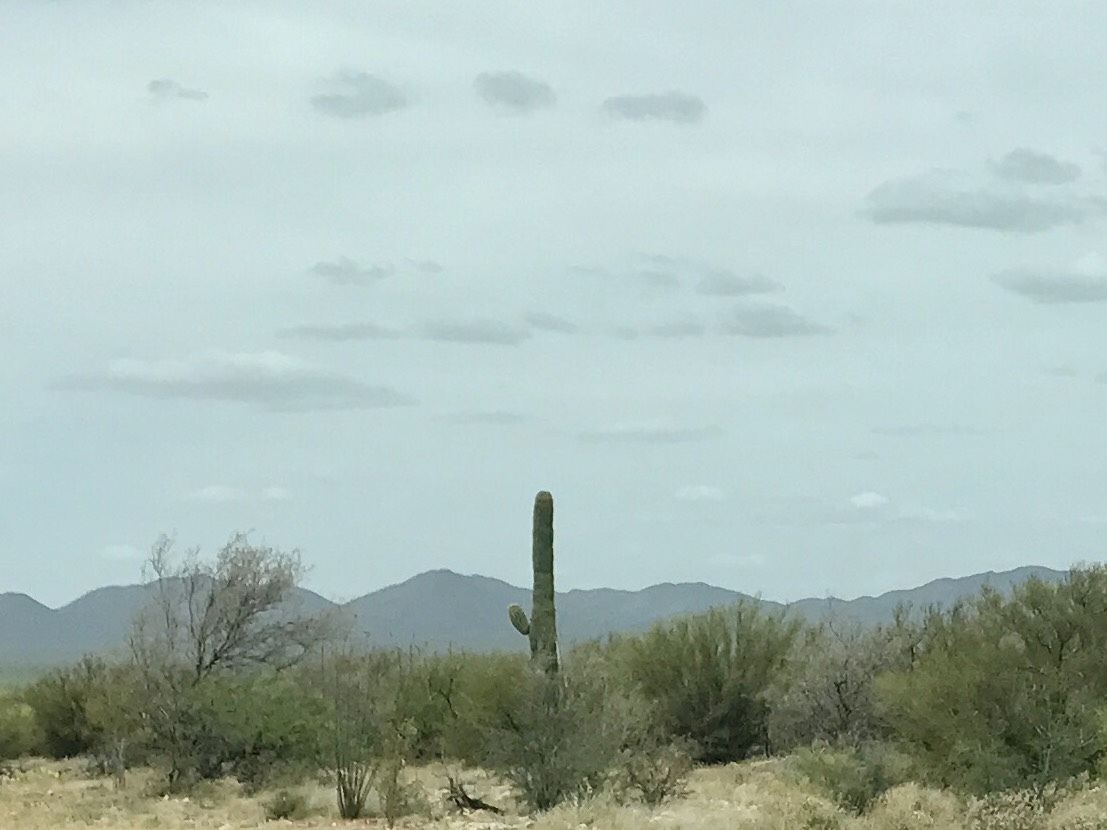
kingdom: Plantae
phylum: Tracheophyta
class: Magnoliopsida
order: Caryophyllales
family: Cactaceae
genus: Carnegiea
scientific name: Carnegiea gigantea
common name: Saguaro
